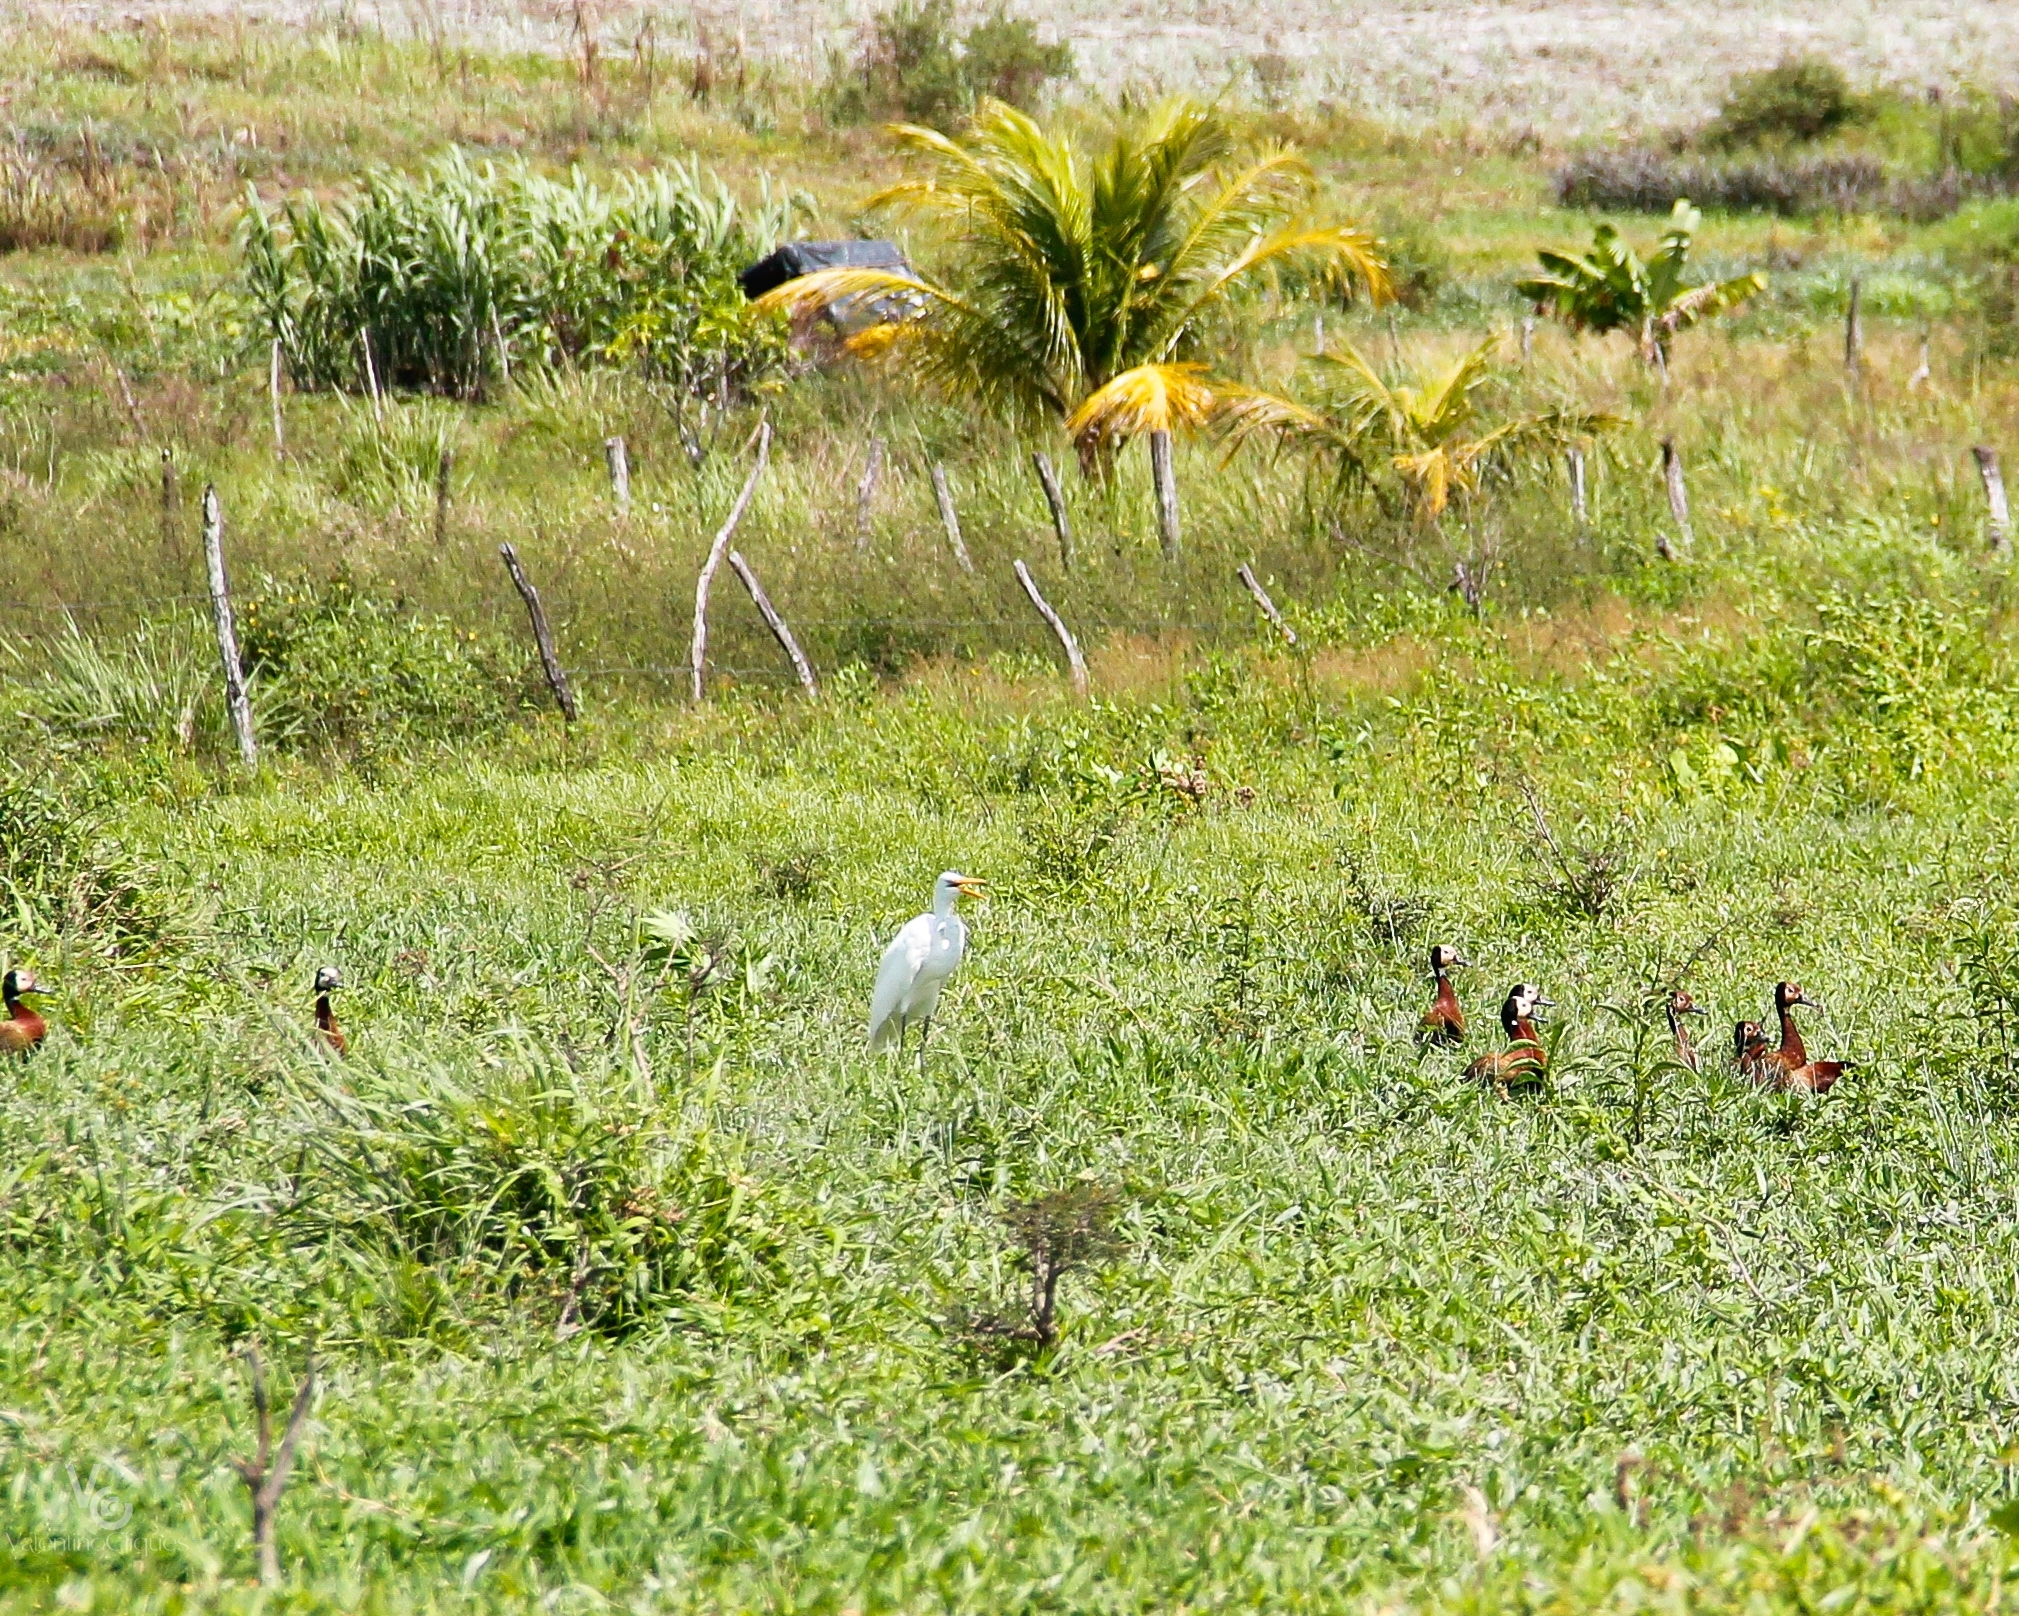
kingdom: Animalia
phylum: Chordata
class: Aves
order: Pelecaniformes
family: Ardeidae
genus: Ardea
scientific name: Ardea alba
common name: Great egret
